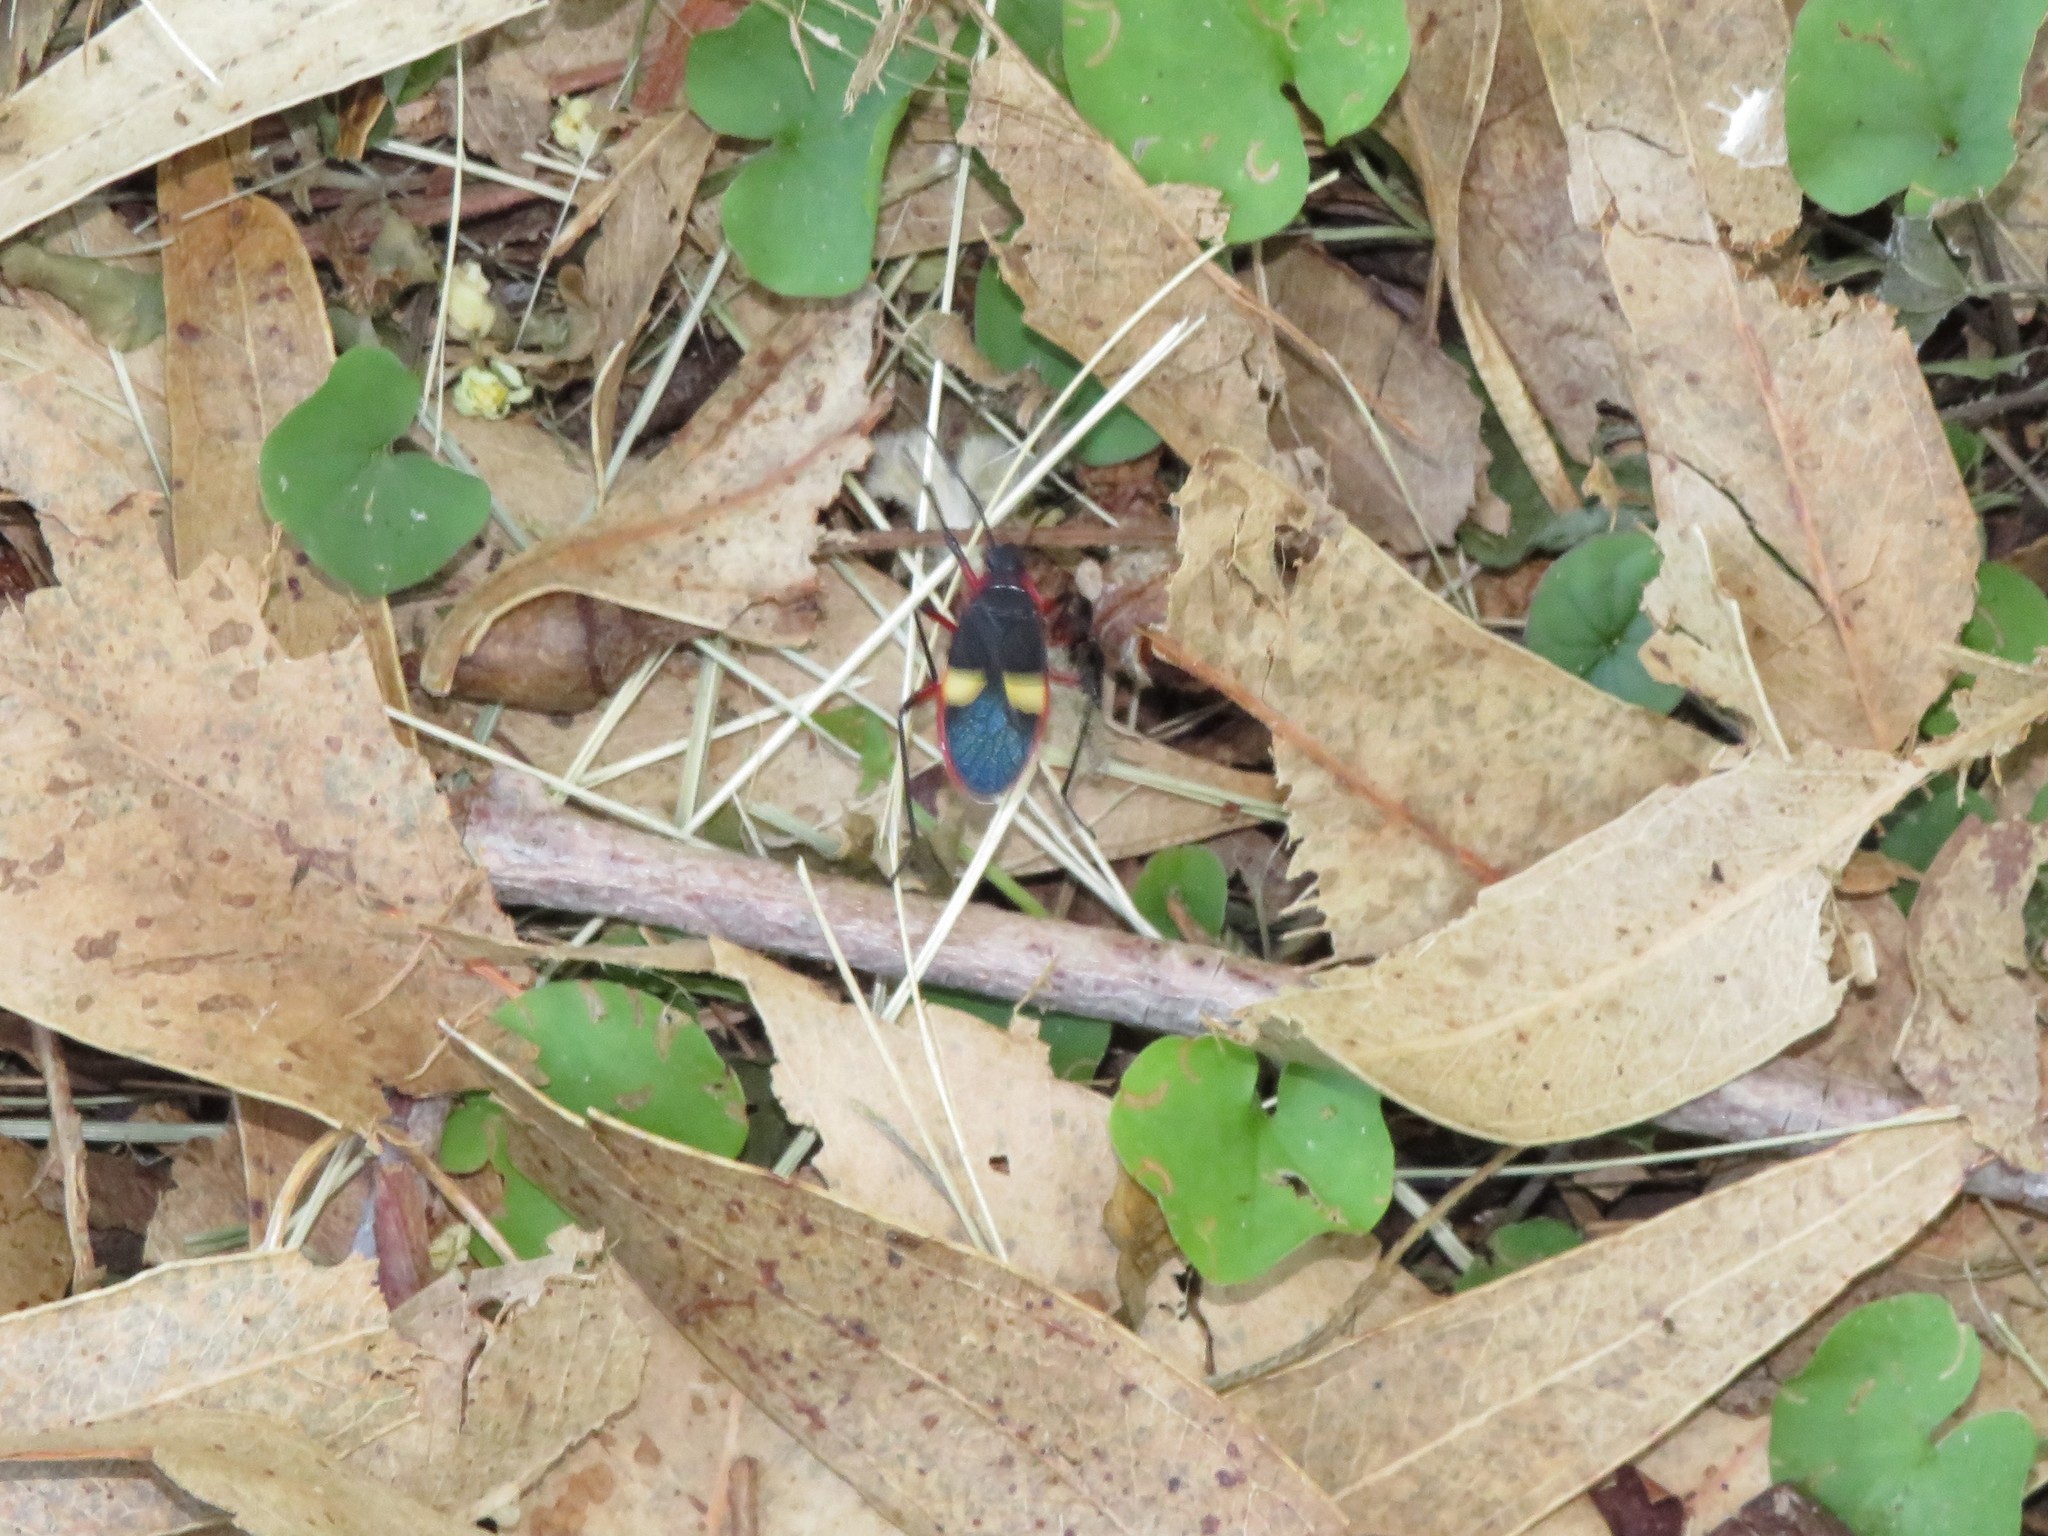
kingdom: Animalia
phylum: Arthropoda
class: Insecta
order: Hemiptera
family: Pyrrhocoridae
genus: Dysdercus
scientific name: Dysdercus albofasciatus
